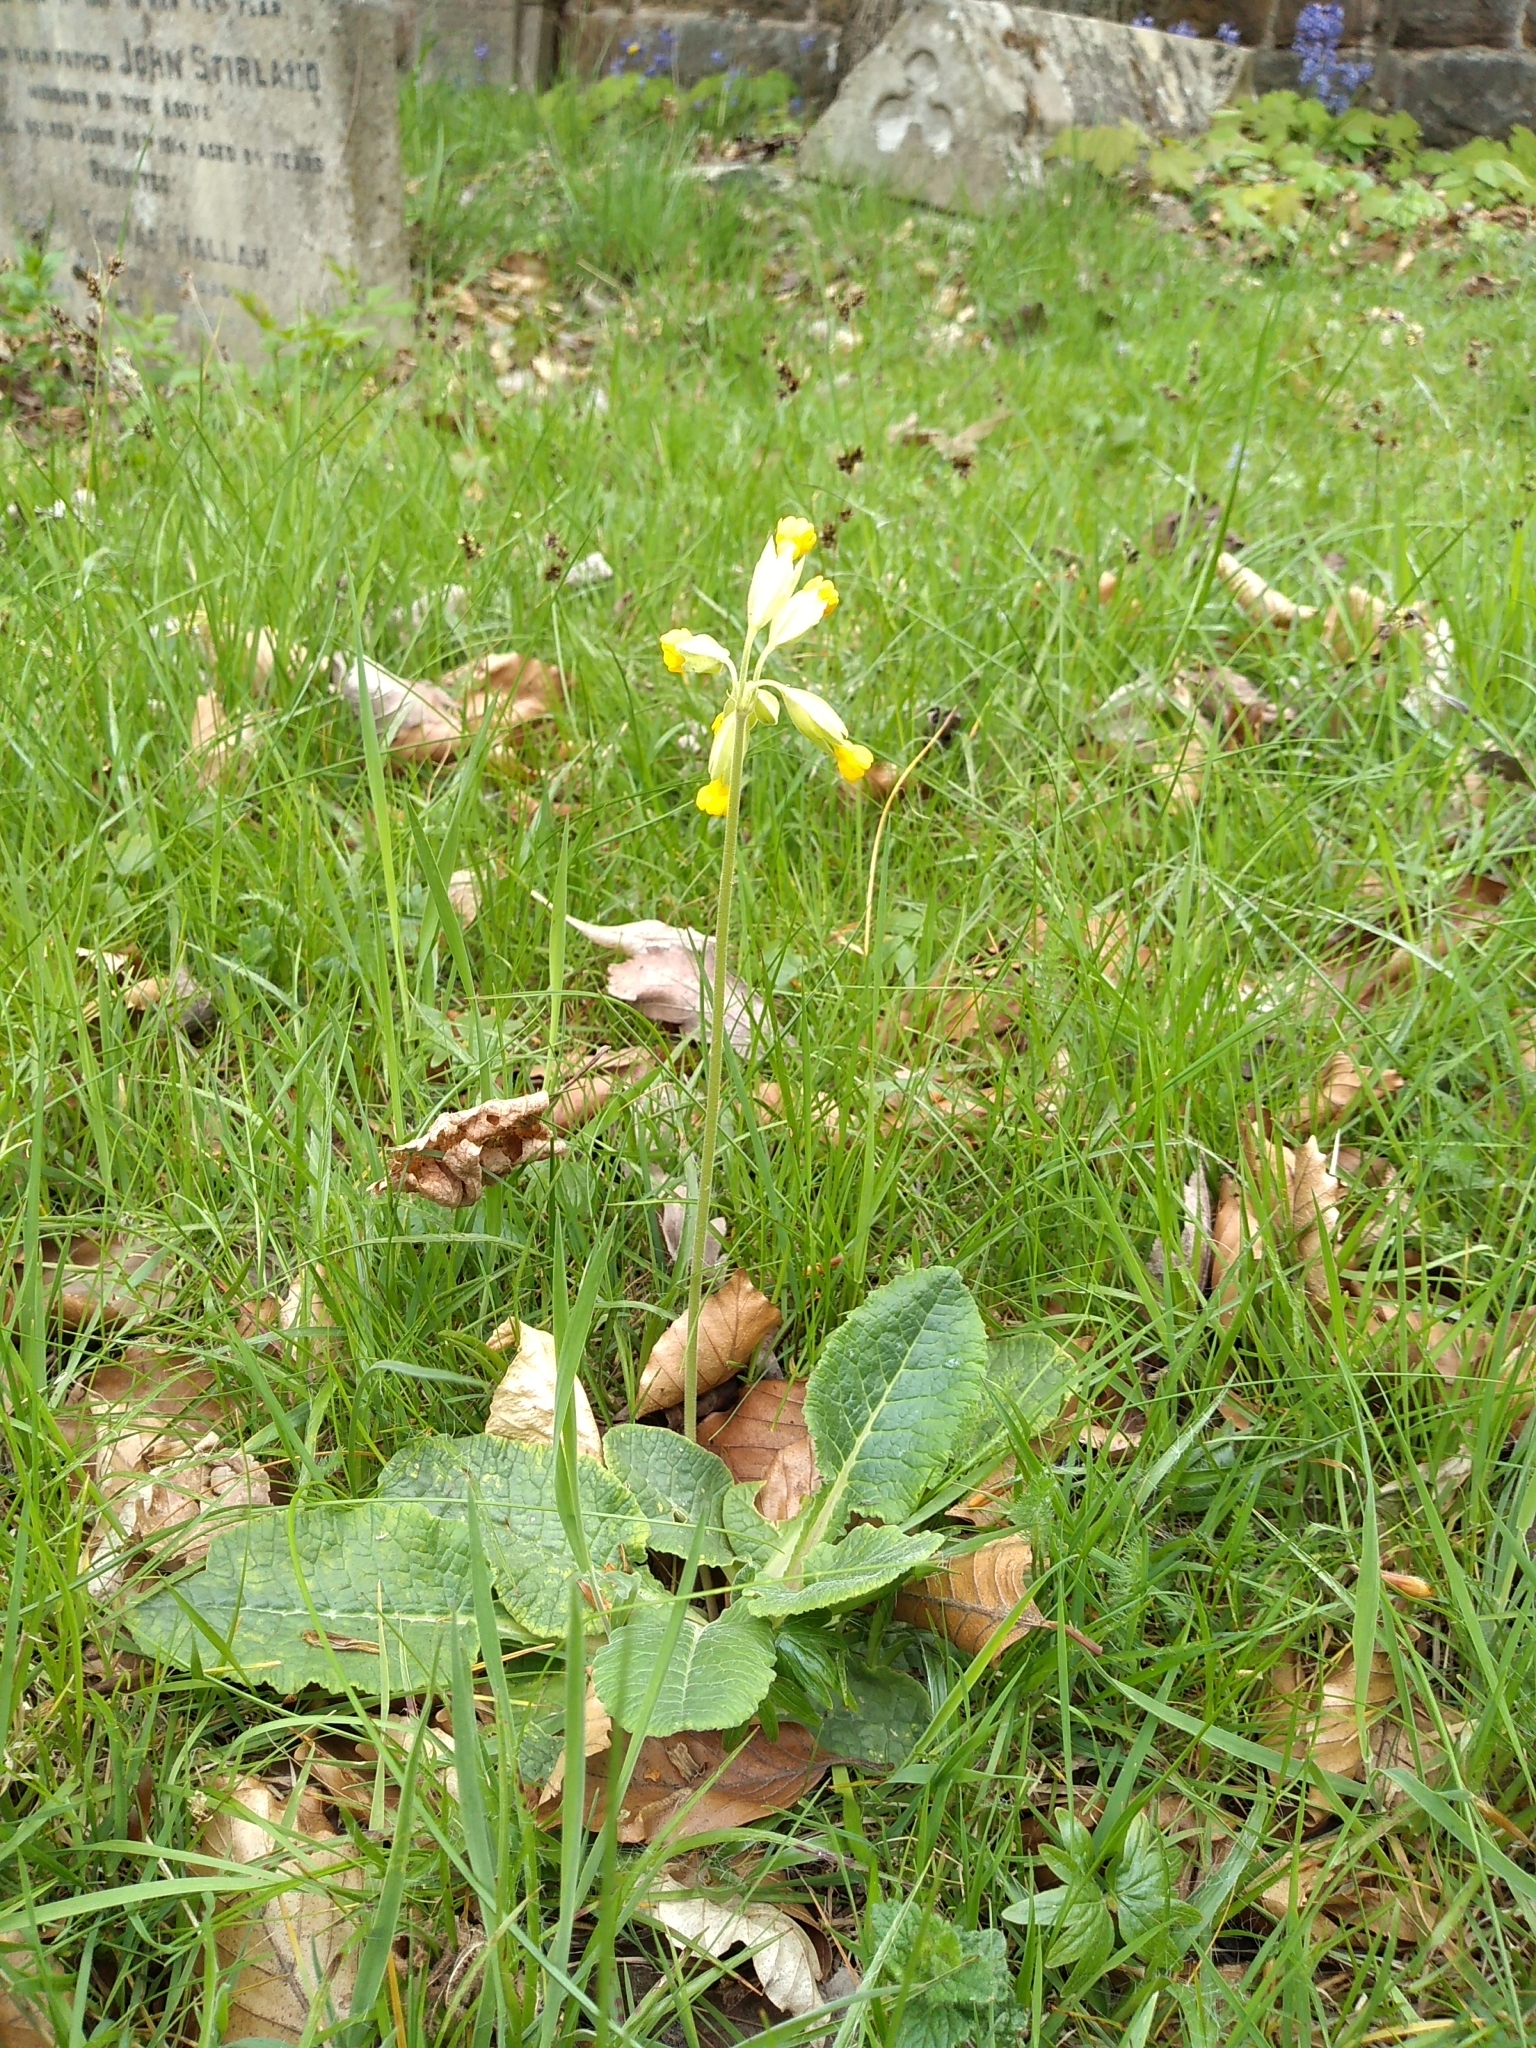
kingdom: Plantae
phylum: Tracheophyta
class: Magnoliopsida
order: Ericales
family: Primulaceae
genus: Primula
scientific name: Primula veris
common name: Cowslip
